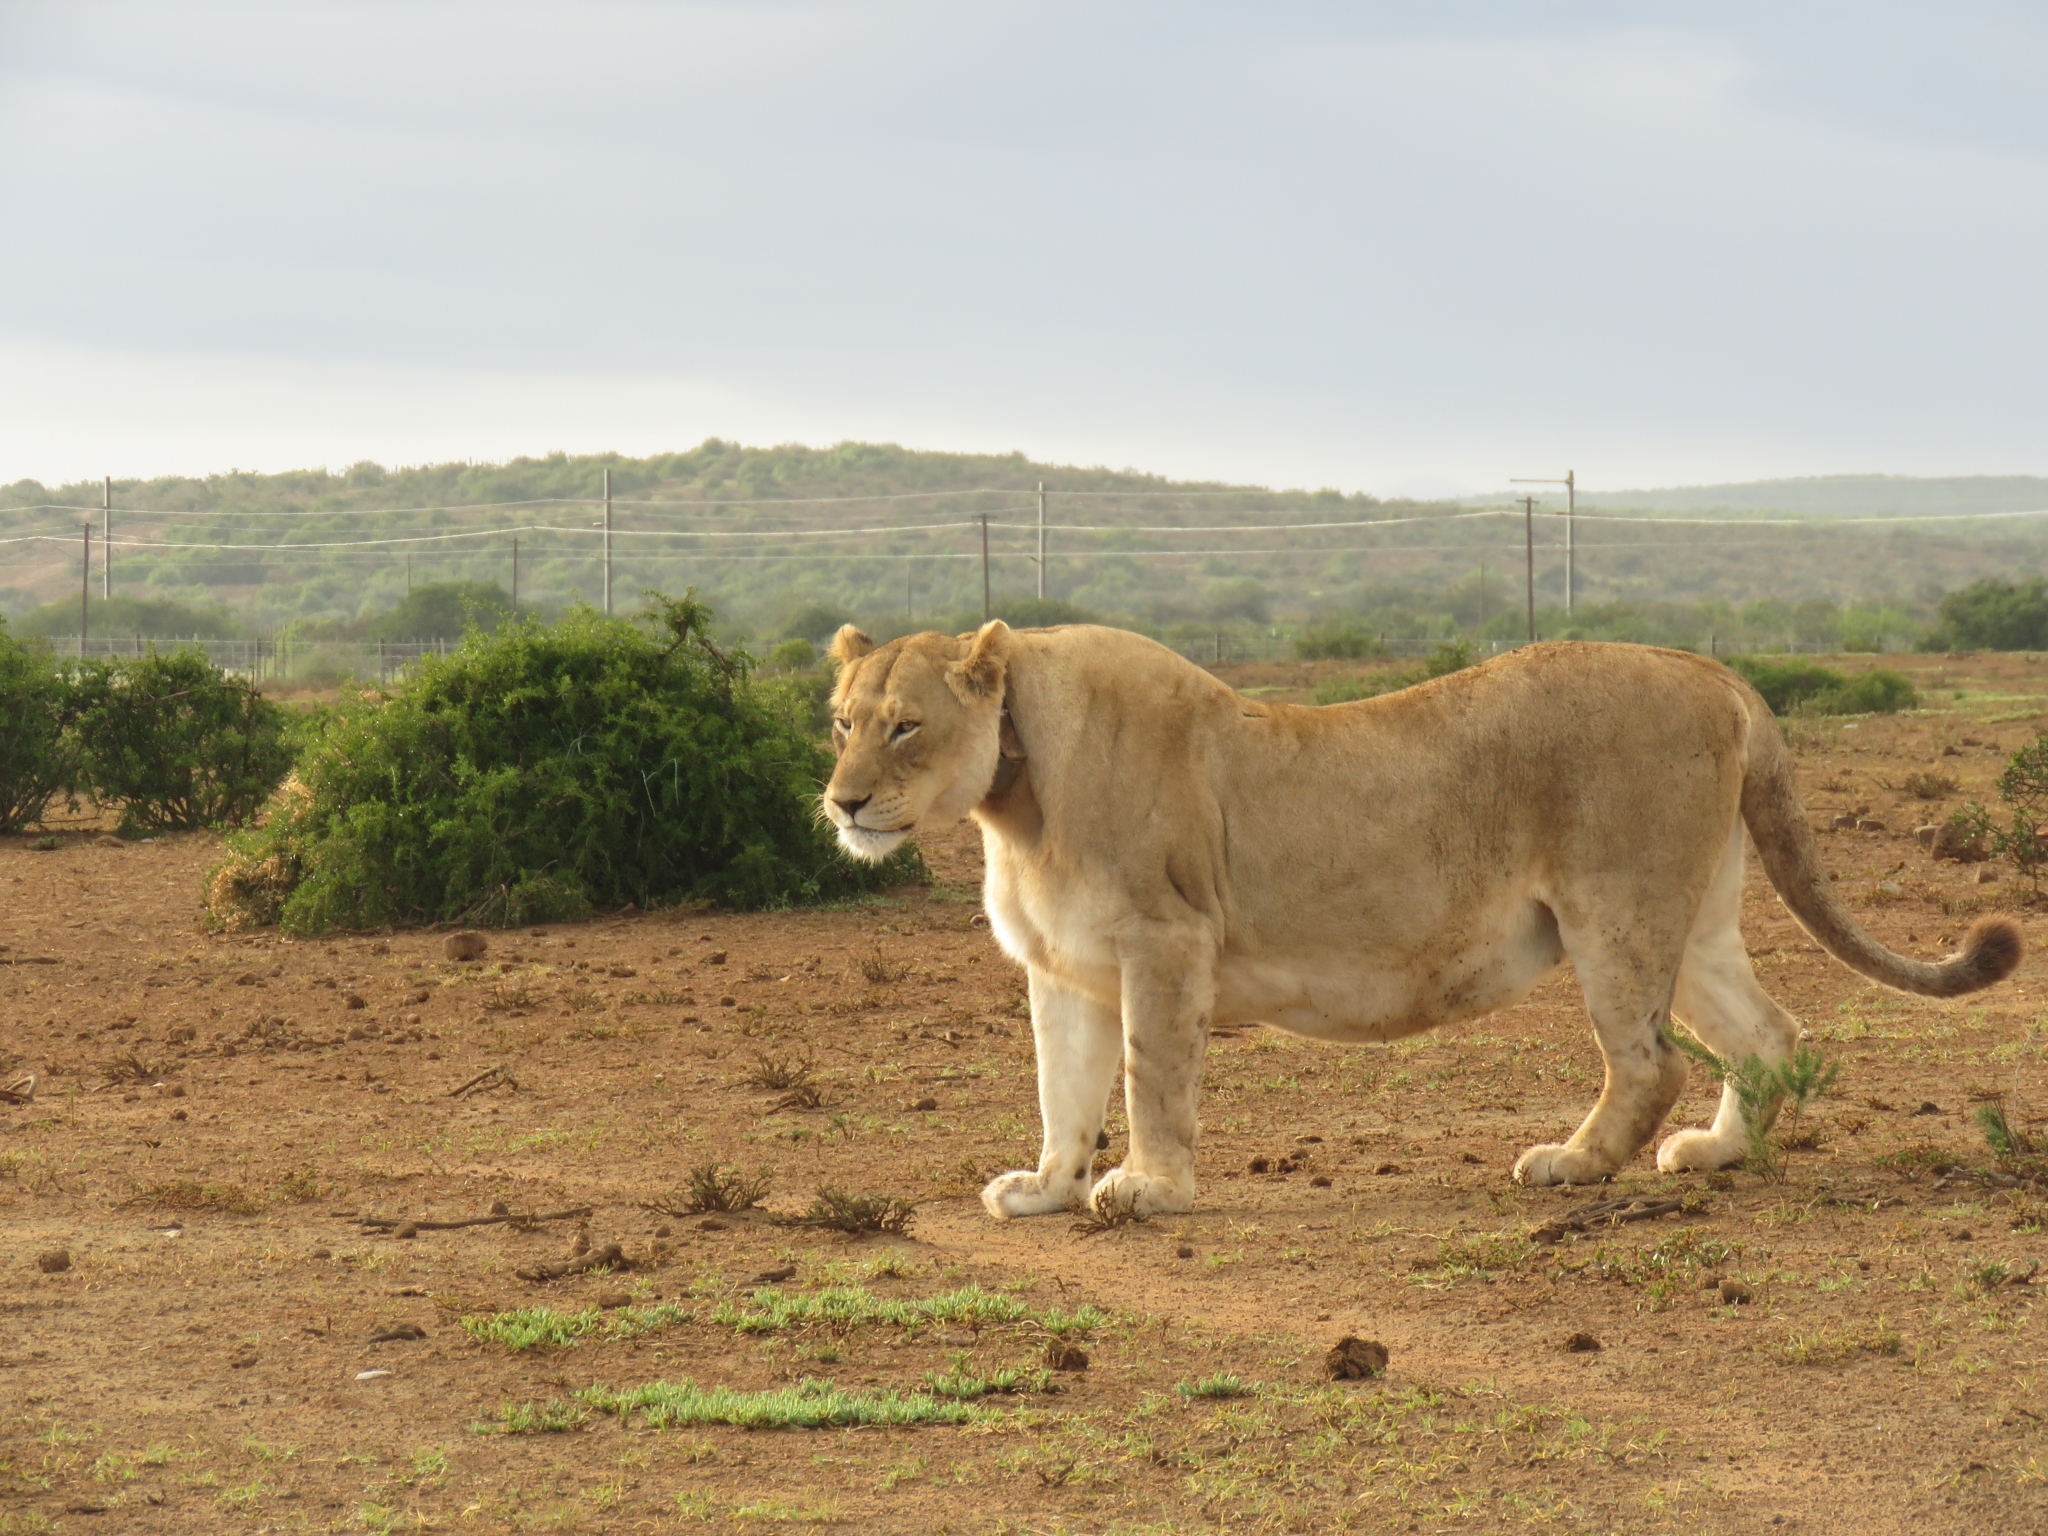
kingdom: Animalia
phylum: Chordata
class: Mammalia
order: Carnivora
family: Felidae
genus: Panthera
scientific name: Panthera leo
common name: Lion
